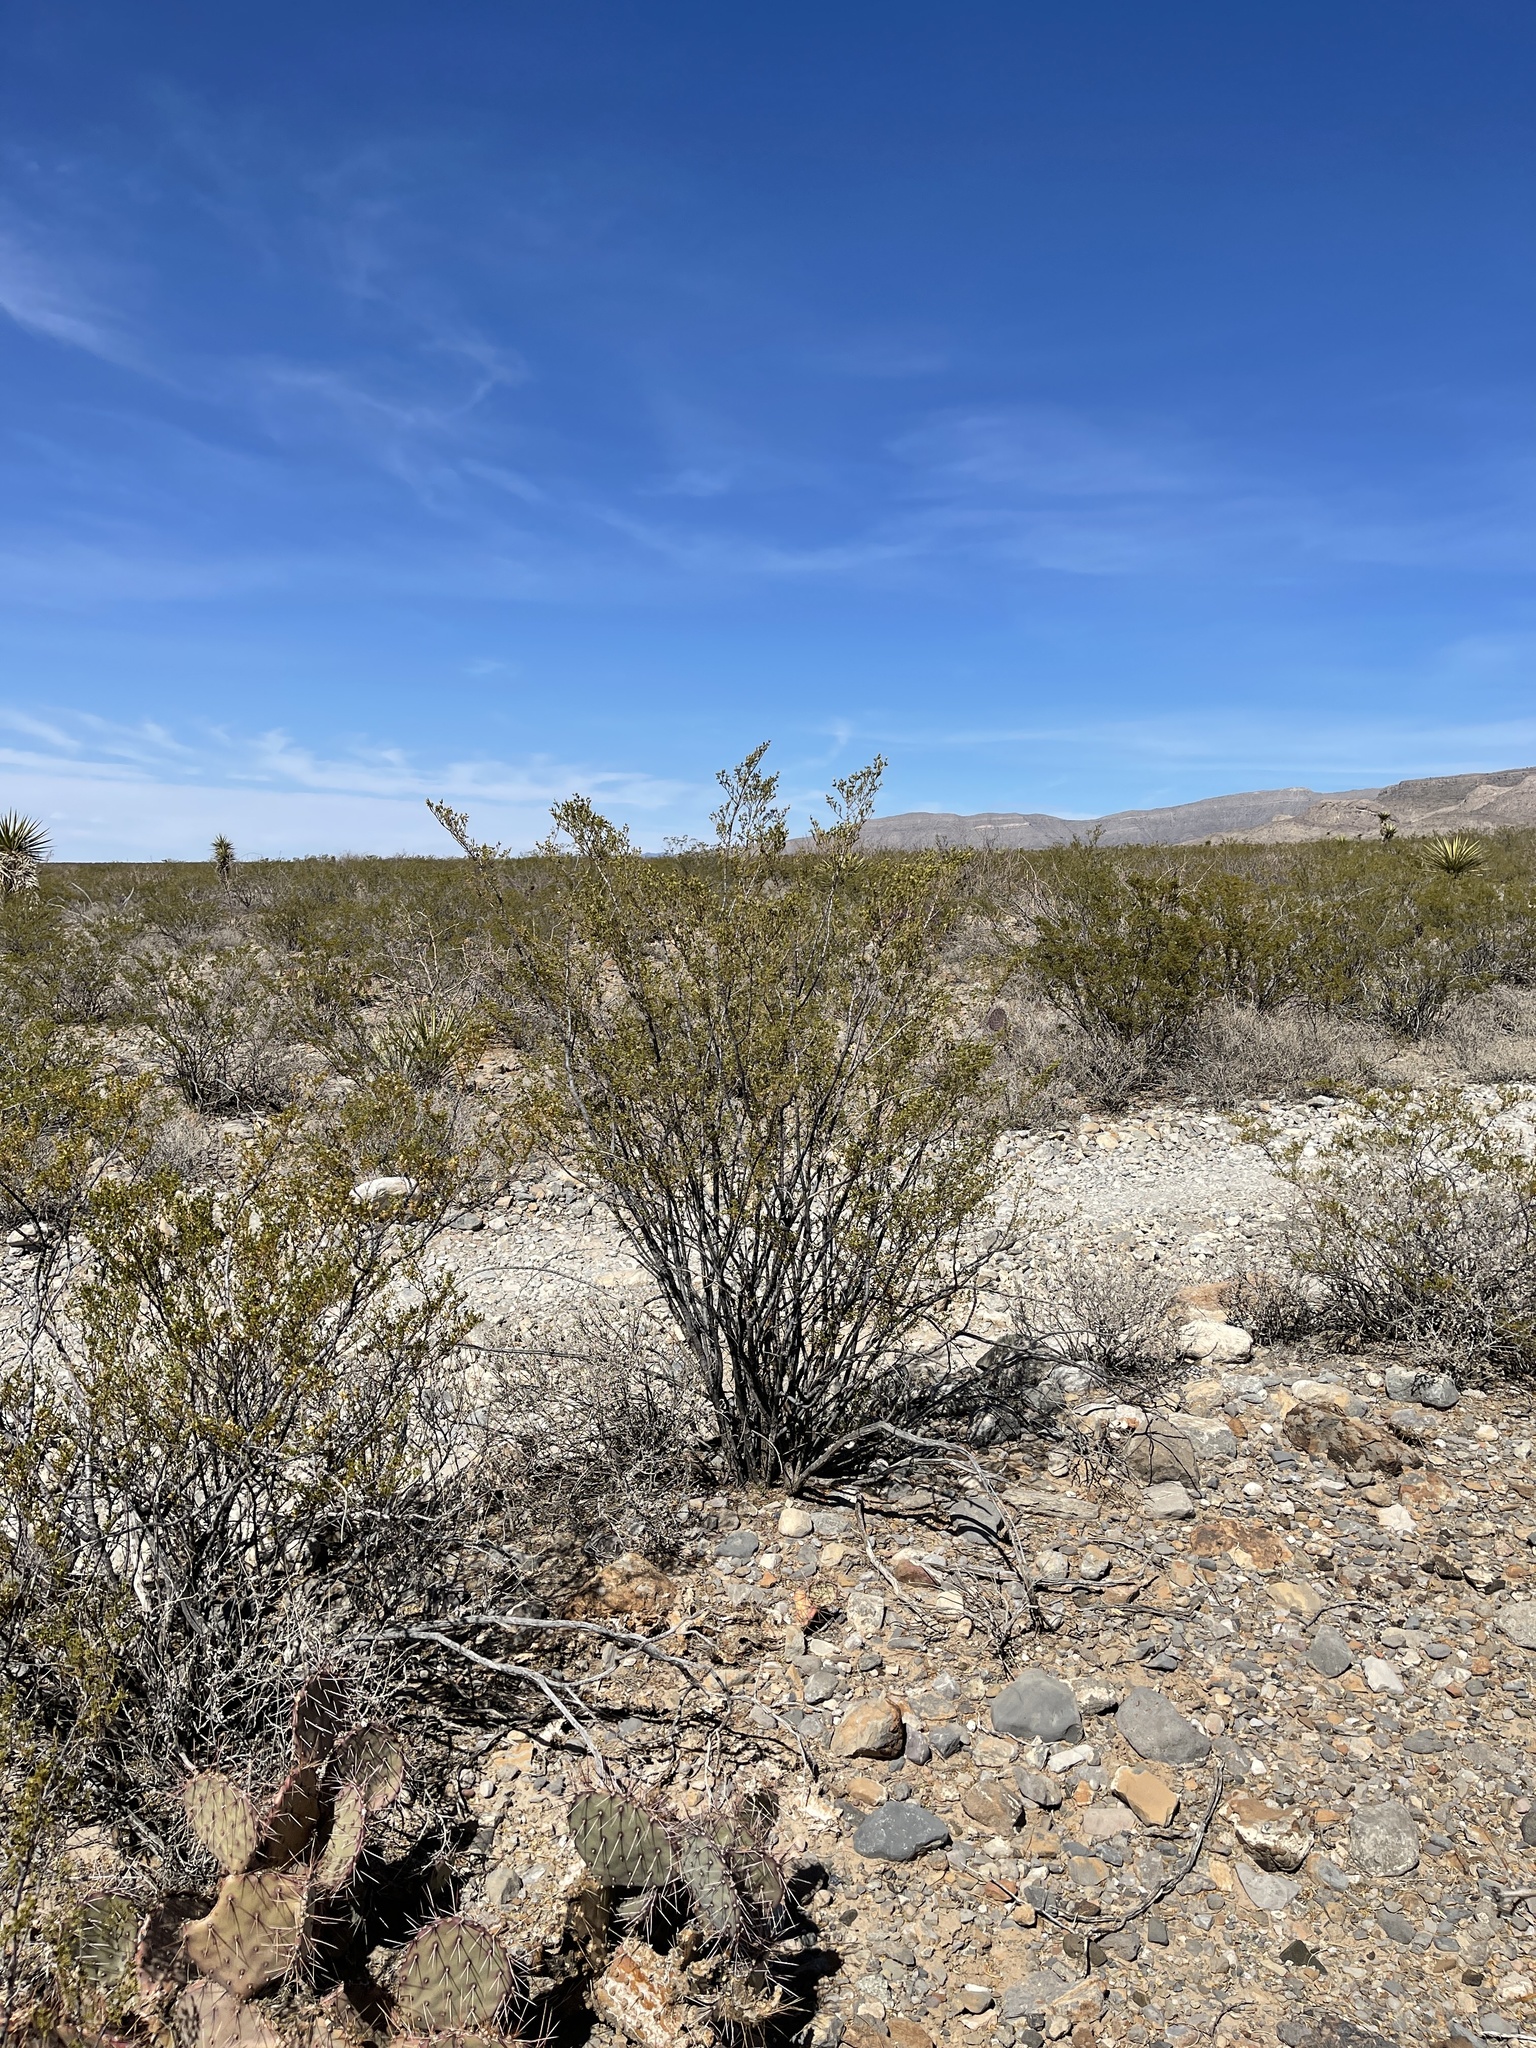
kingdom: Plantae
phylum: Tracheophyta
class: Magnoliopsida
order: Zygophyllales
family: Zygophyllaceae
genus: Larrea
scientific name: Larrea tridentata
